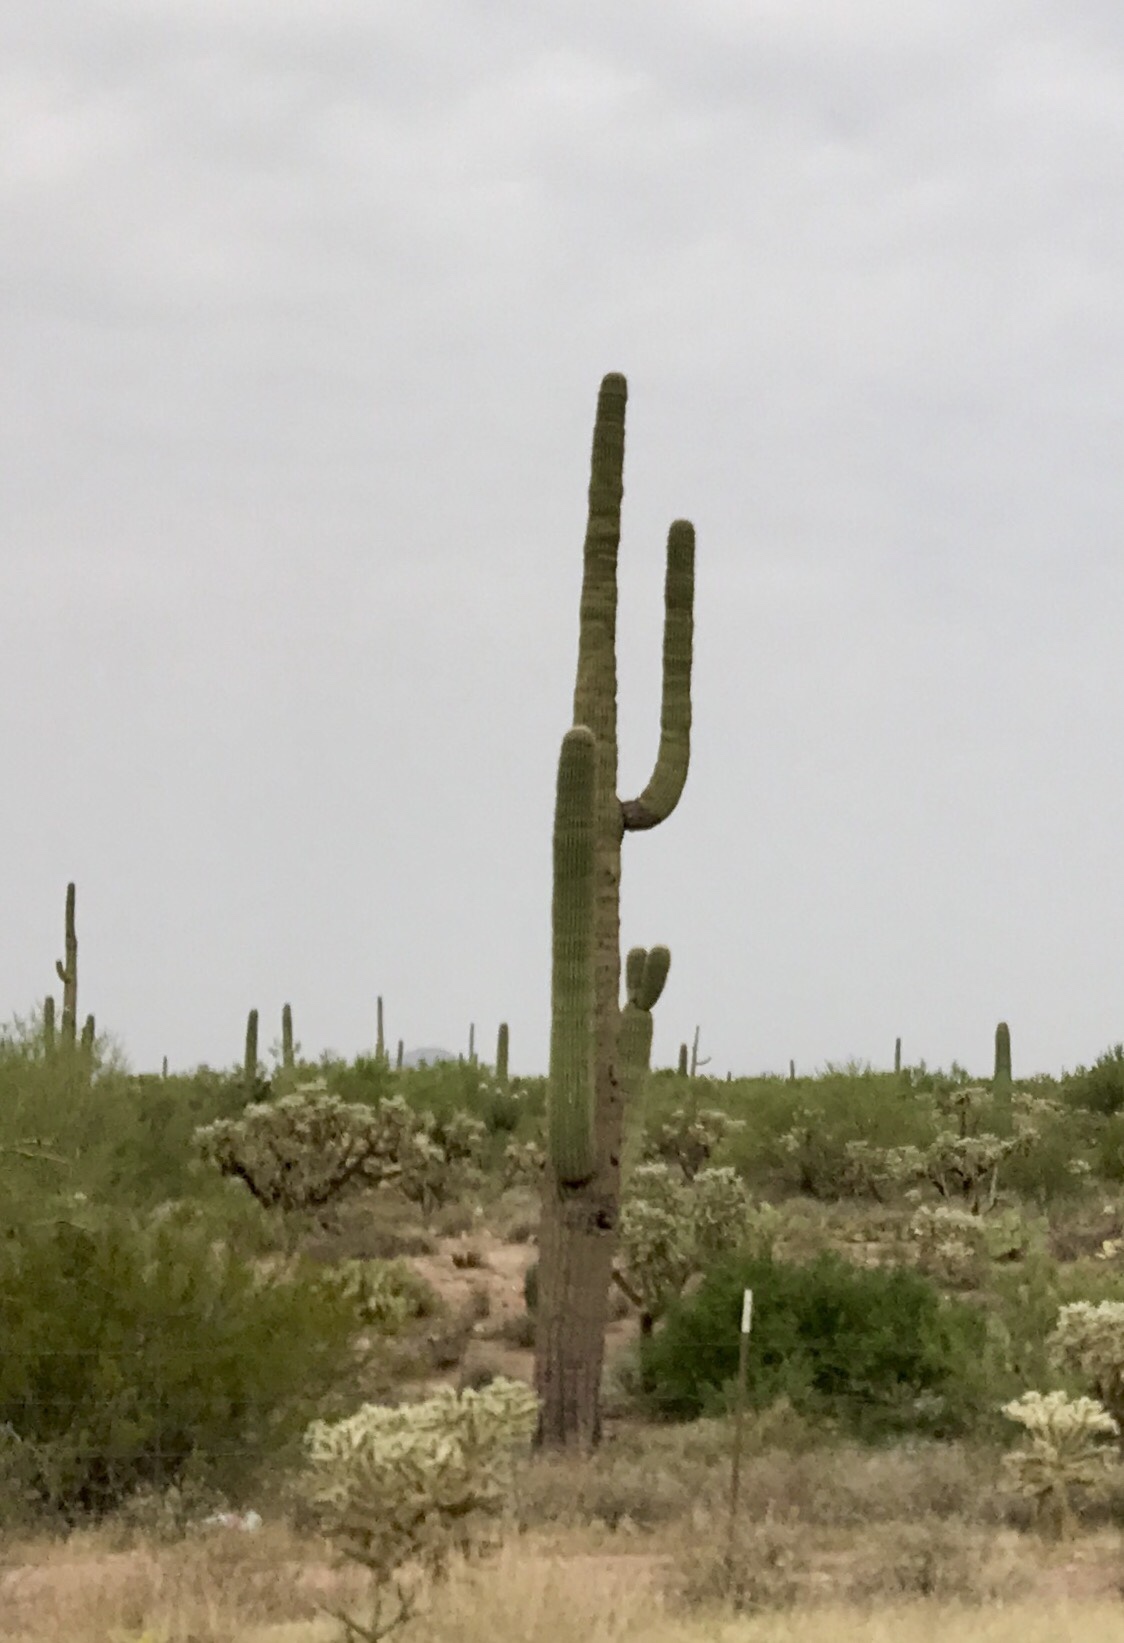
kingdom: Plantae
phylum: Tracheophyta
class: Magnoliopsida
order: Caryophyllales
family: Cactaceae
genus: Carnegiea
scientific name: Carnegiea gigantea
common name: Saguaro
